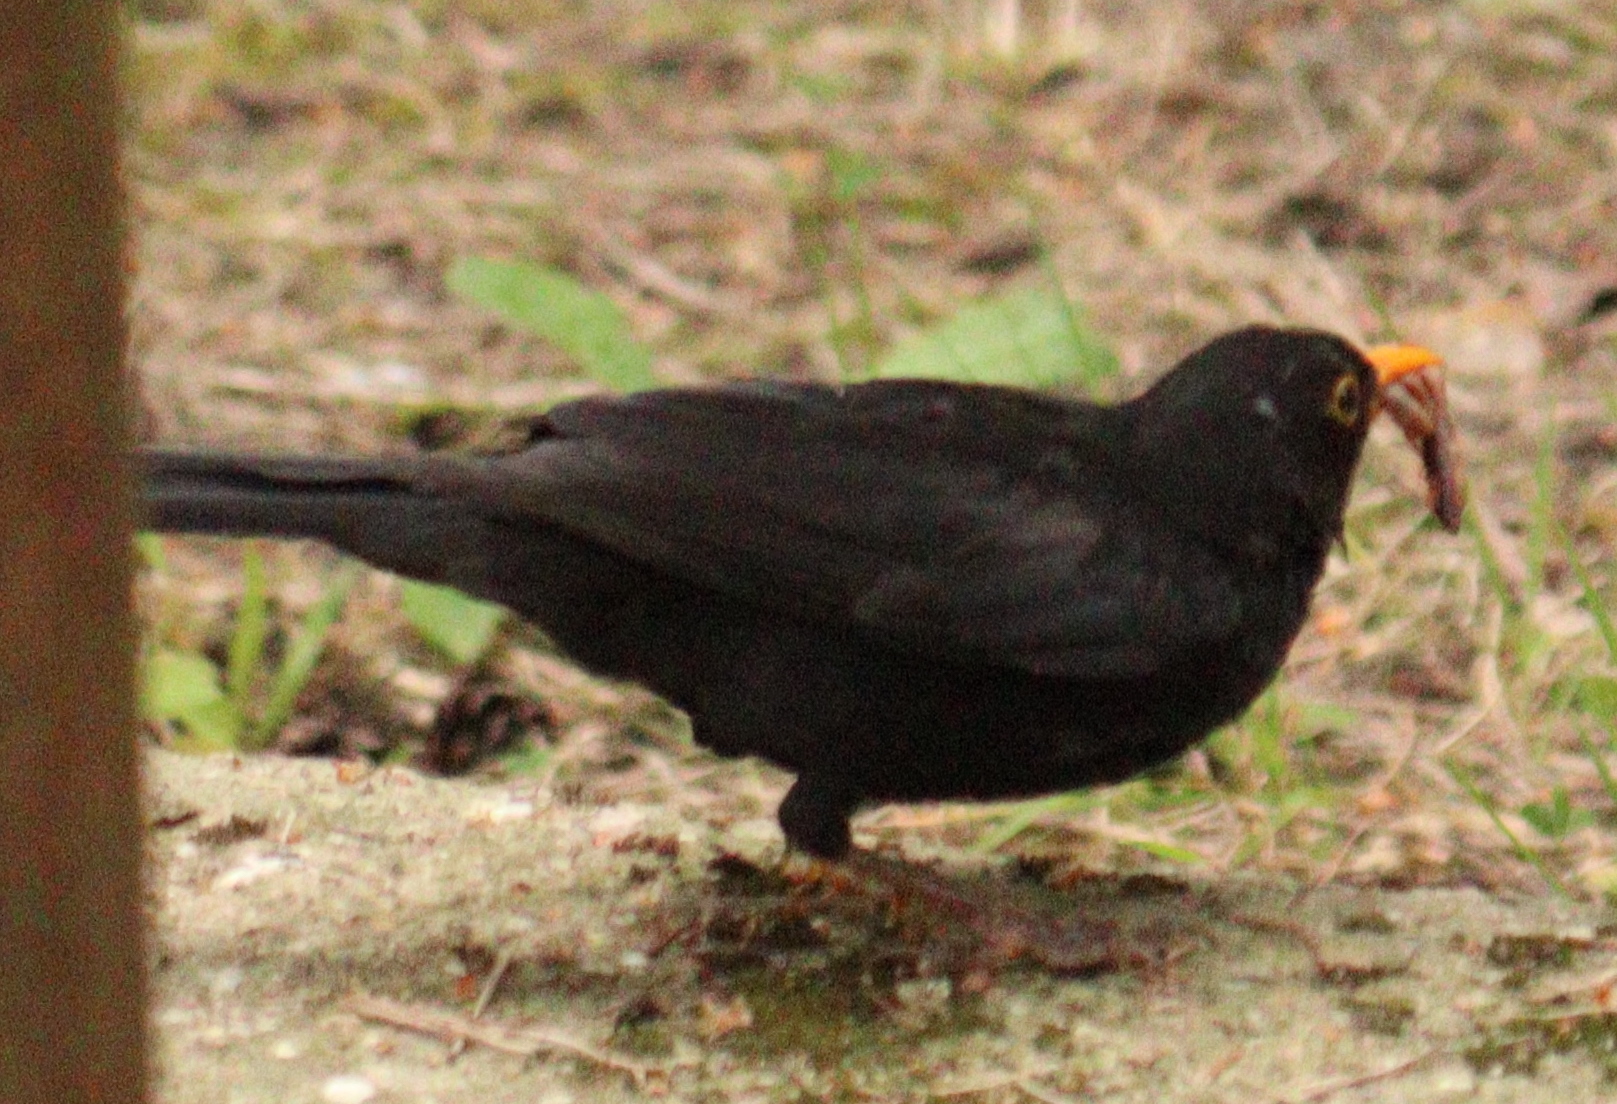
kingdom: Animalia
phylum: Chordata
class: Aves
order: Passeriformes
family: Turdidae
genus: Turdus
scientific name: Turdus merula
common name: Common blackbird
